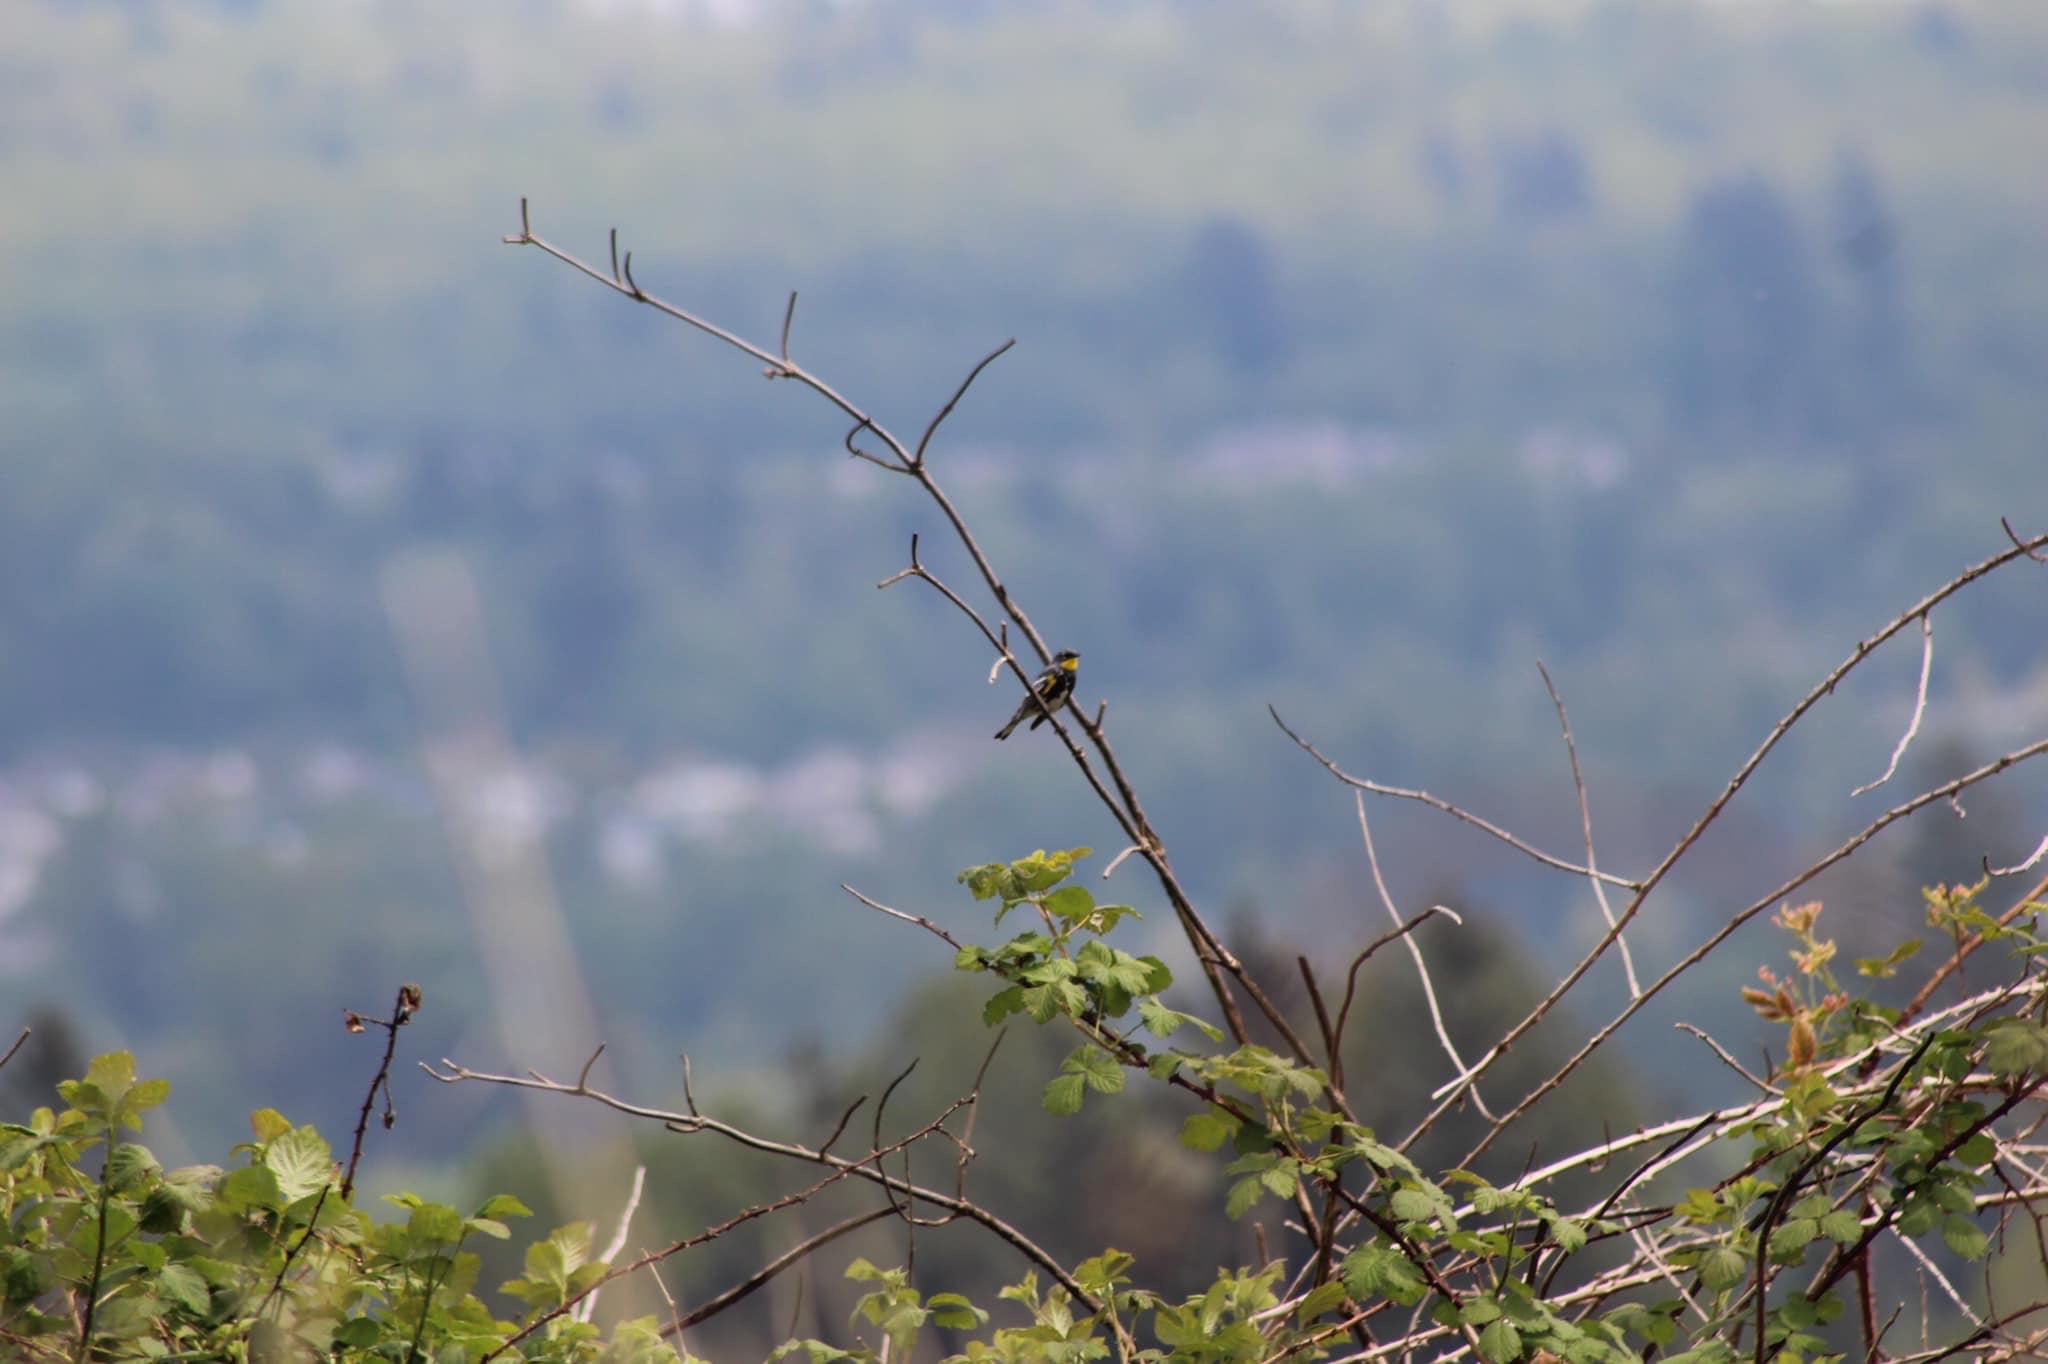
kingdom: Animalia
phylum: Chordata
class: Aves
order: Passeriformes
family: Parulidae
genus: Setophaga
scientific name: Setophaga coronata
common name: Myrtle warbler
